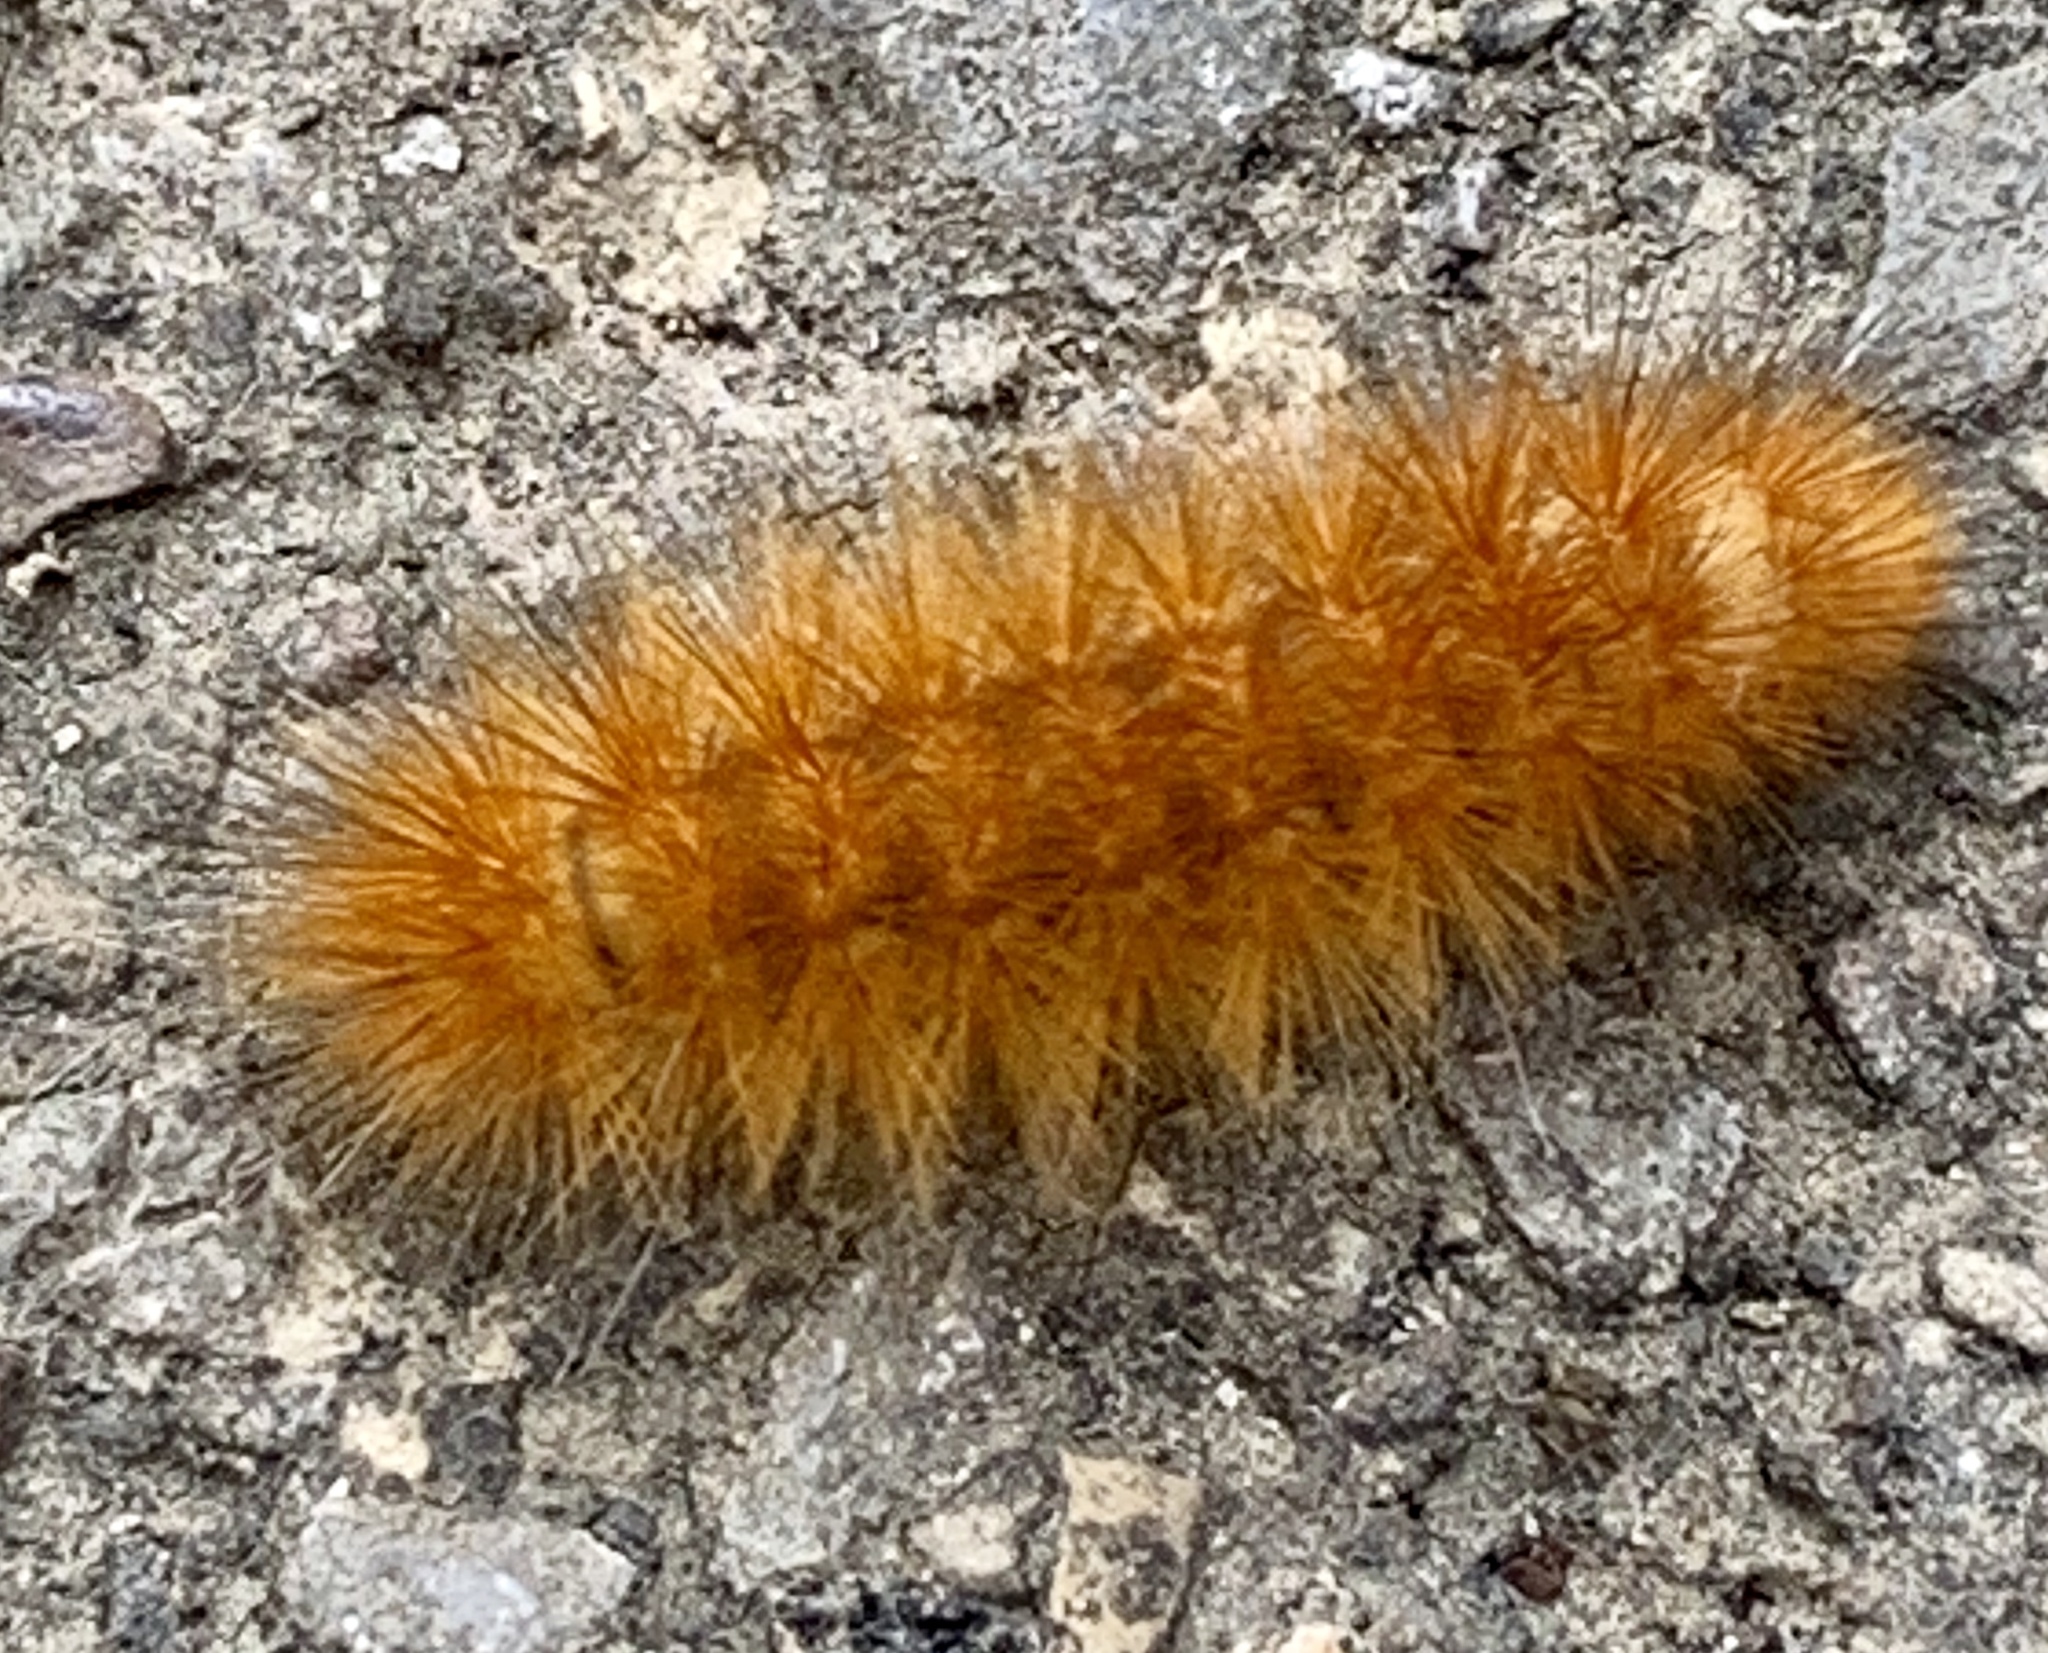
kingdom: Animalia
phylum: Arthropoda
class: Insecta
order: Lepidoptera
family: Erebidae
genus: Spilosoma
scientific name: Spilosoma virginica
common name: Virginia tiger moth
